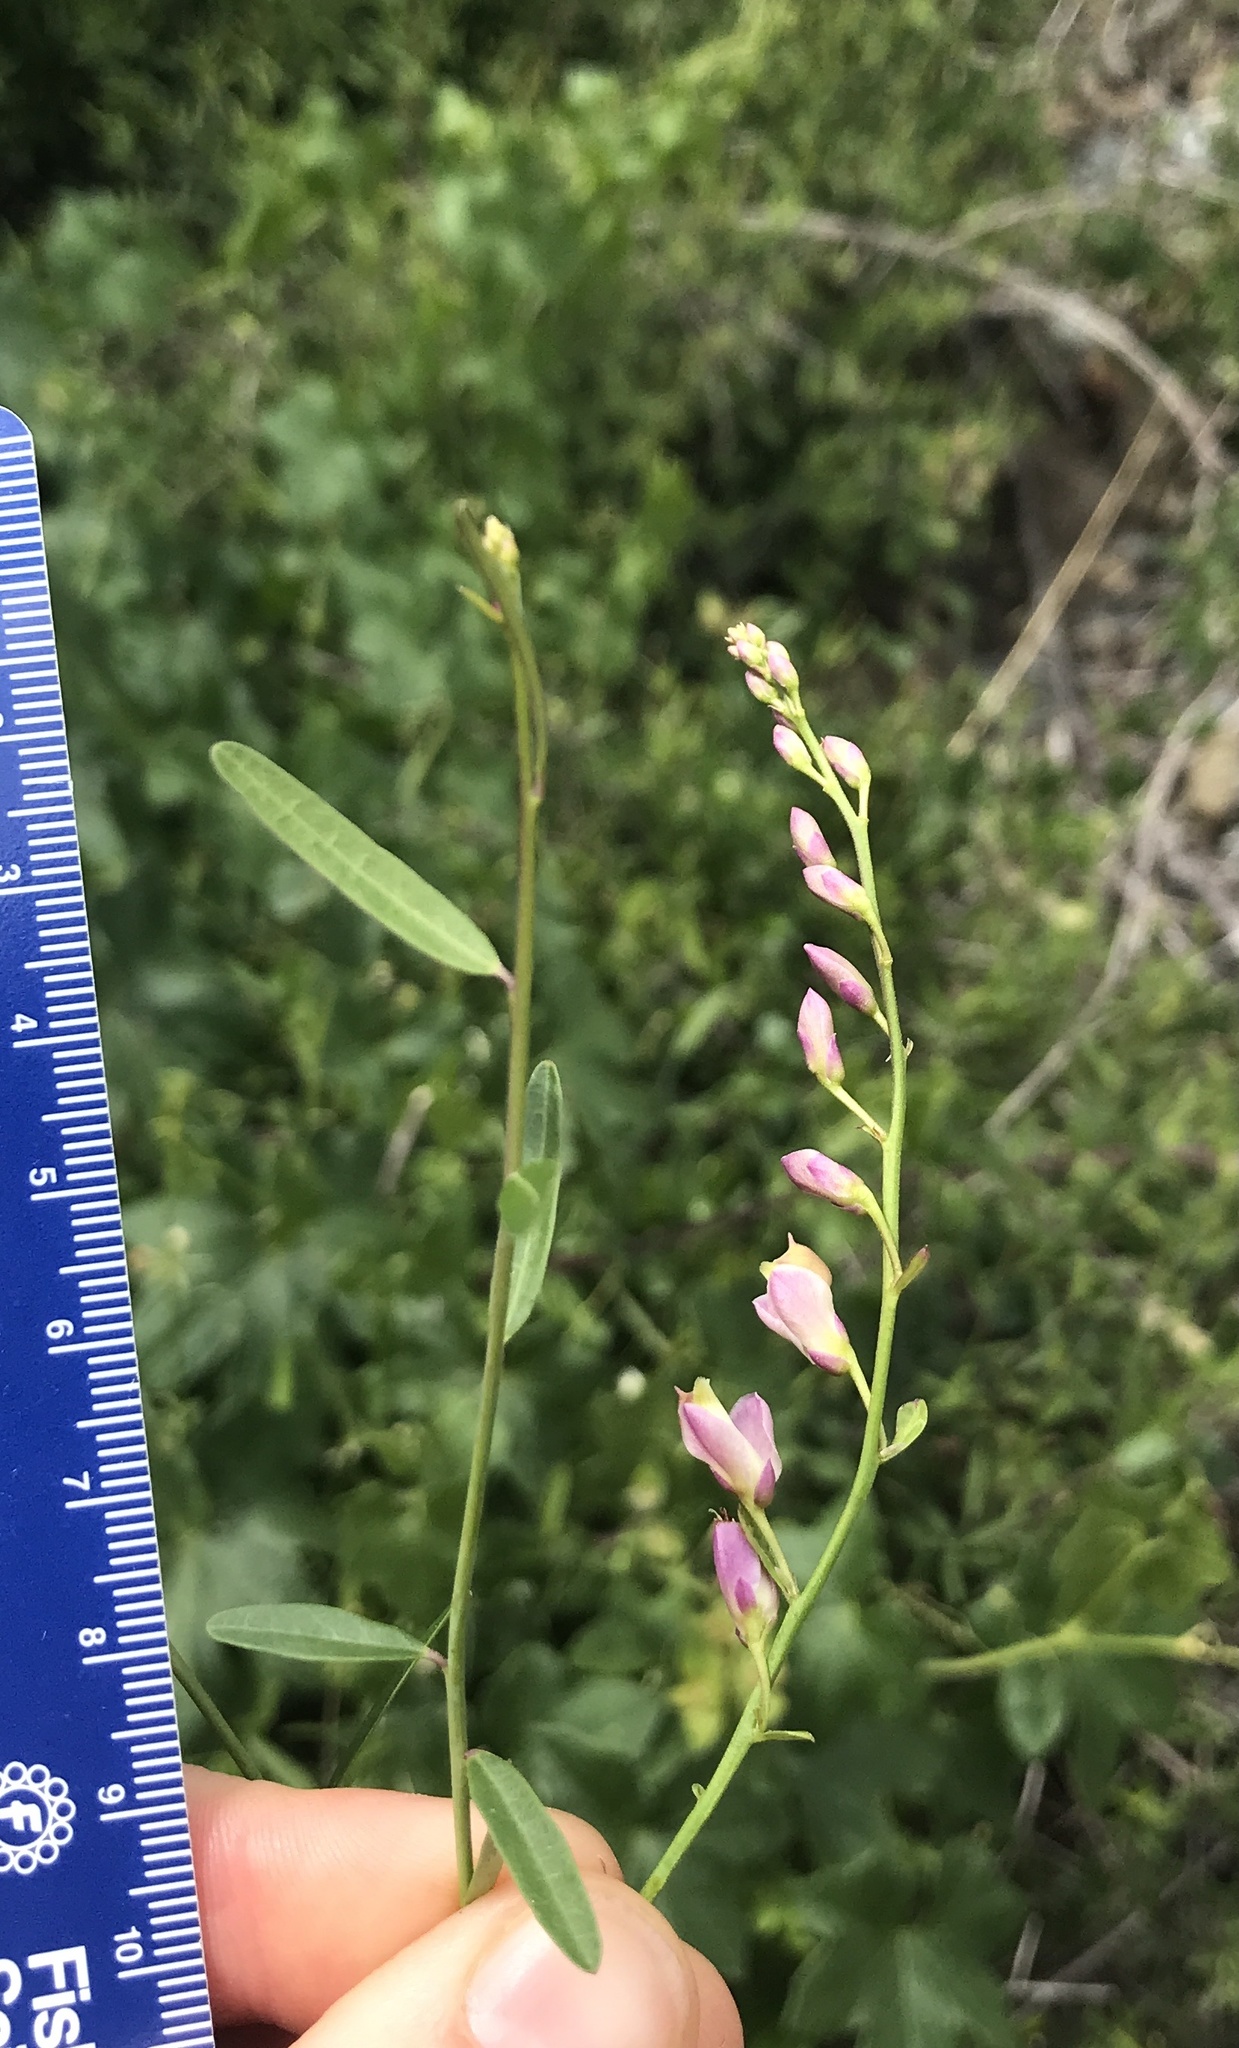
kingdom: Plantae
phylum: Tracheophyta
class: Magnoliopsida
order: Fabales
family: Polygalaceae
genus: Rhinotropis
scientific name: Rhinotropis cornuta
